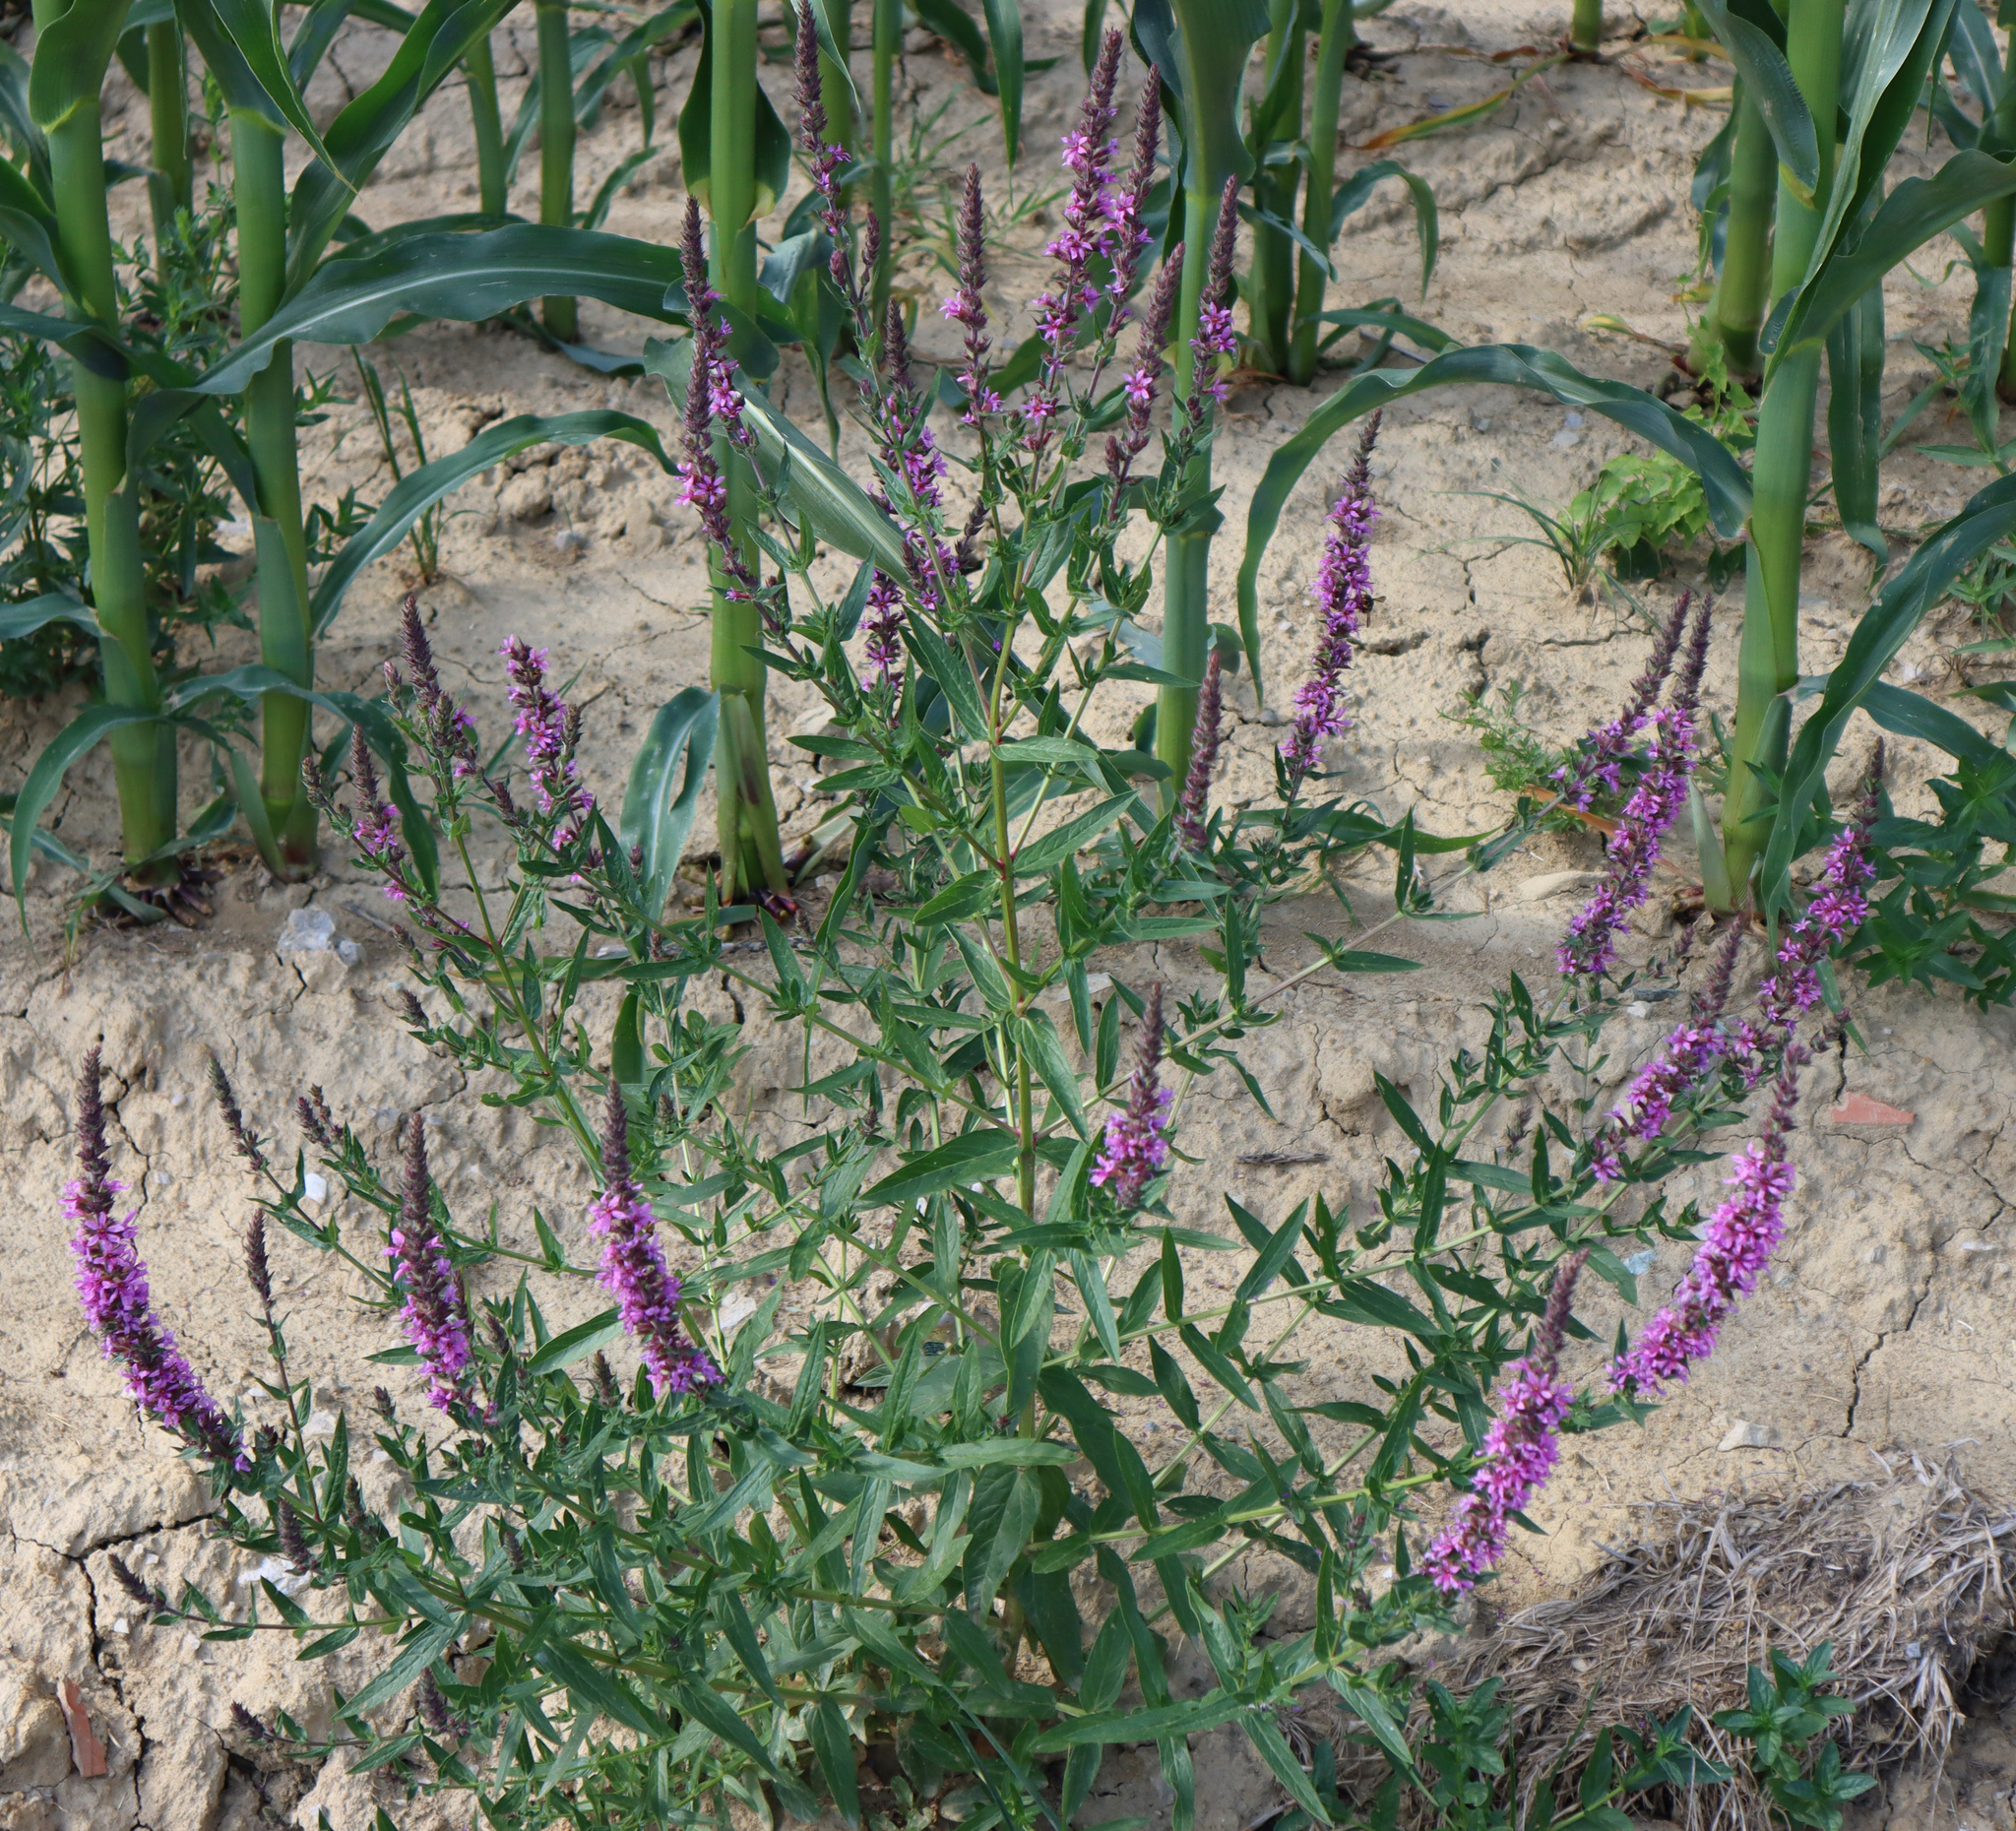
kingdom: Plantae
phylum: Tracheophyta
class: Magnoliopsida
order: Myrtales
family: Lythraceae
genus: Lythrum
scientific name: Lythrum salicaria
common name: Purple loosestrife
